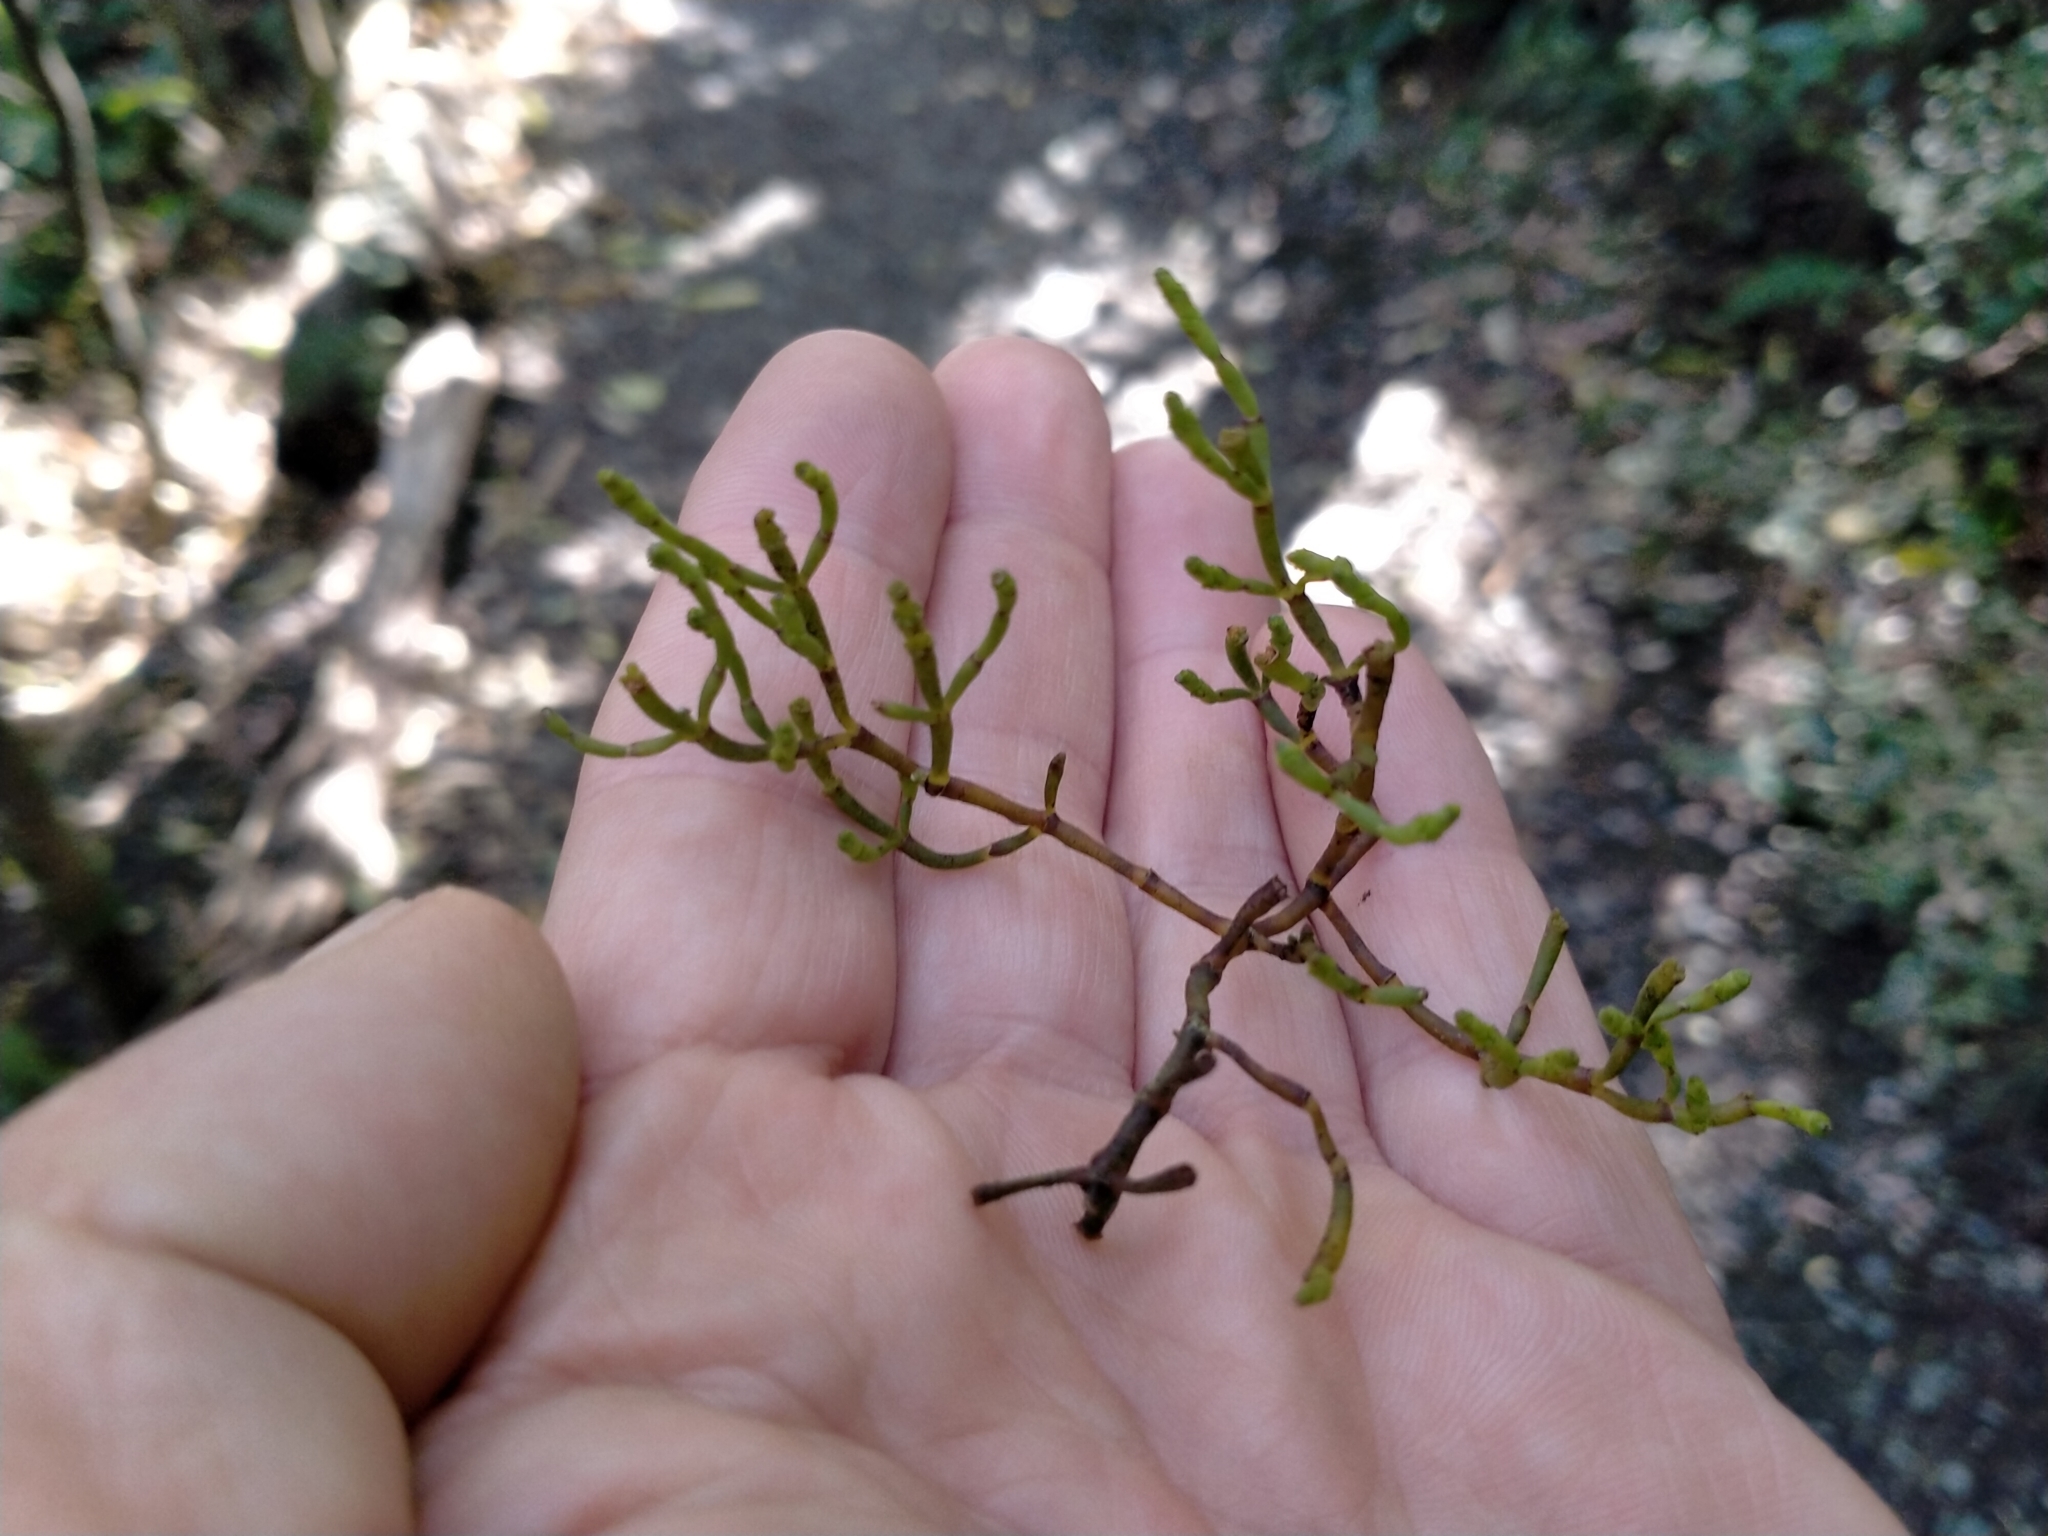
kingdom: Plantae
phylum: Tracheophyta
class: Magnoliopsida
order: Santalales
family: Viscaceae
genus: Korthalsella
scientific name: Korthalsella salicornioides
